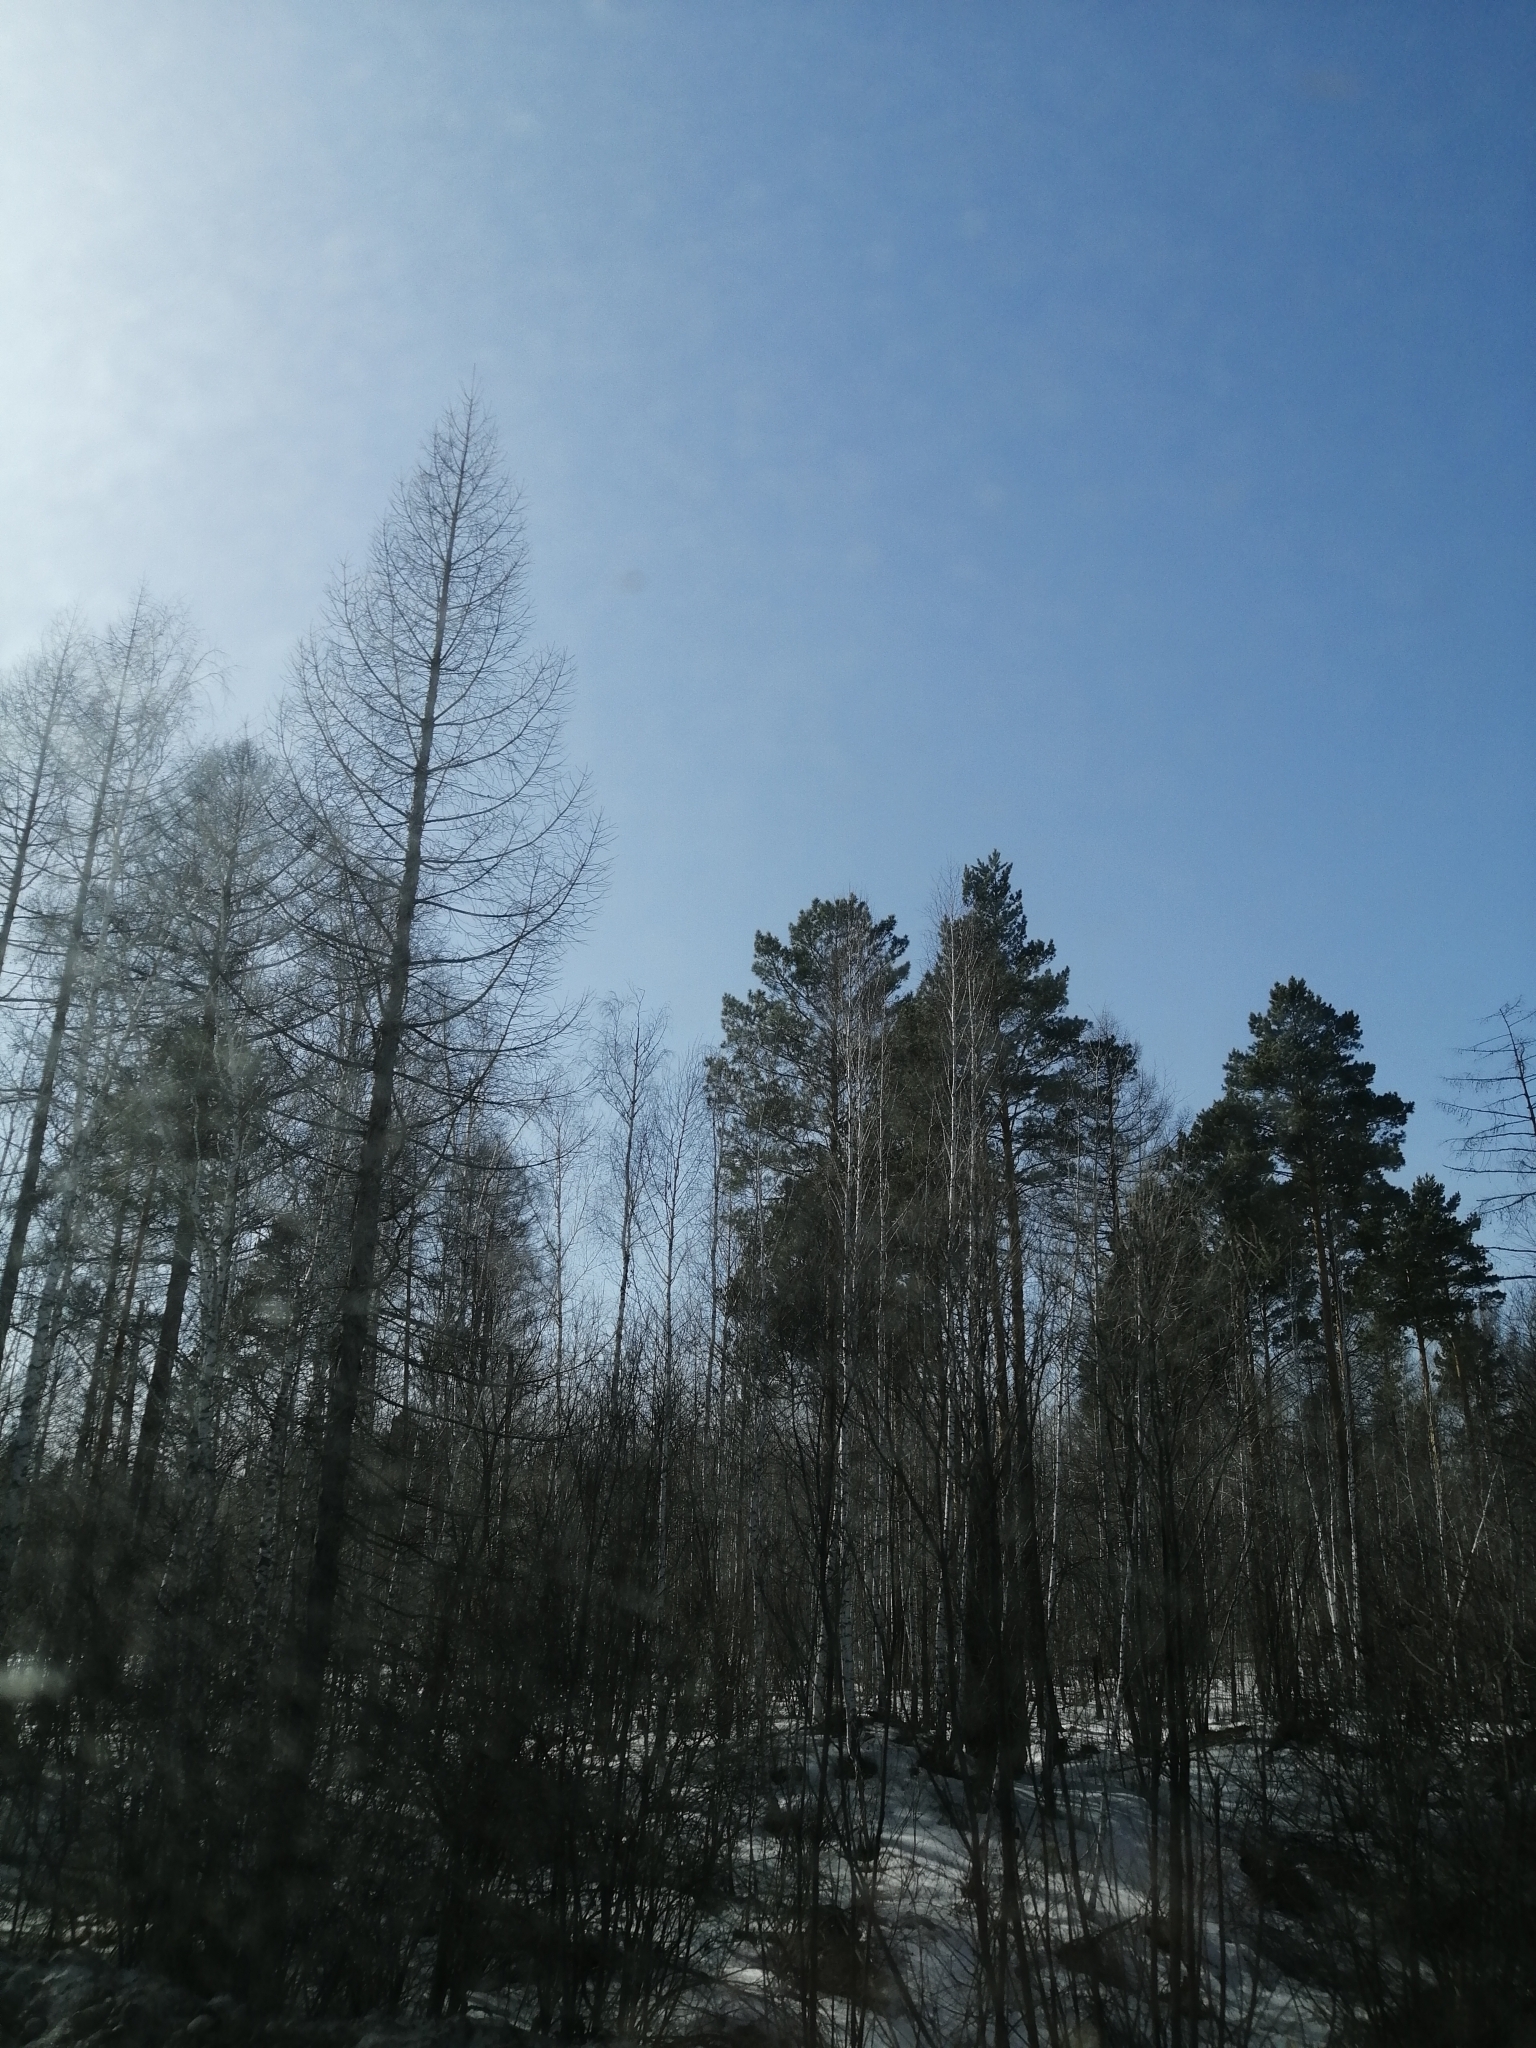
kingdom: Plantae
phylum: Tracheophyta
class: Pinopsida
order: Pinales
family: Pinaceae
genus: Larix
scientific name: Larix sibirica
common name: Siberian larch
